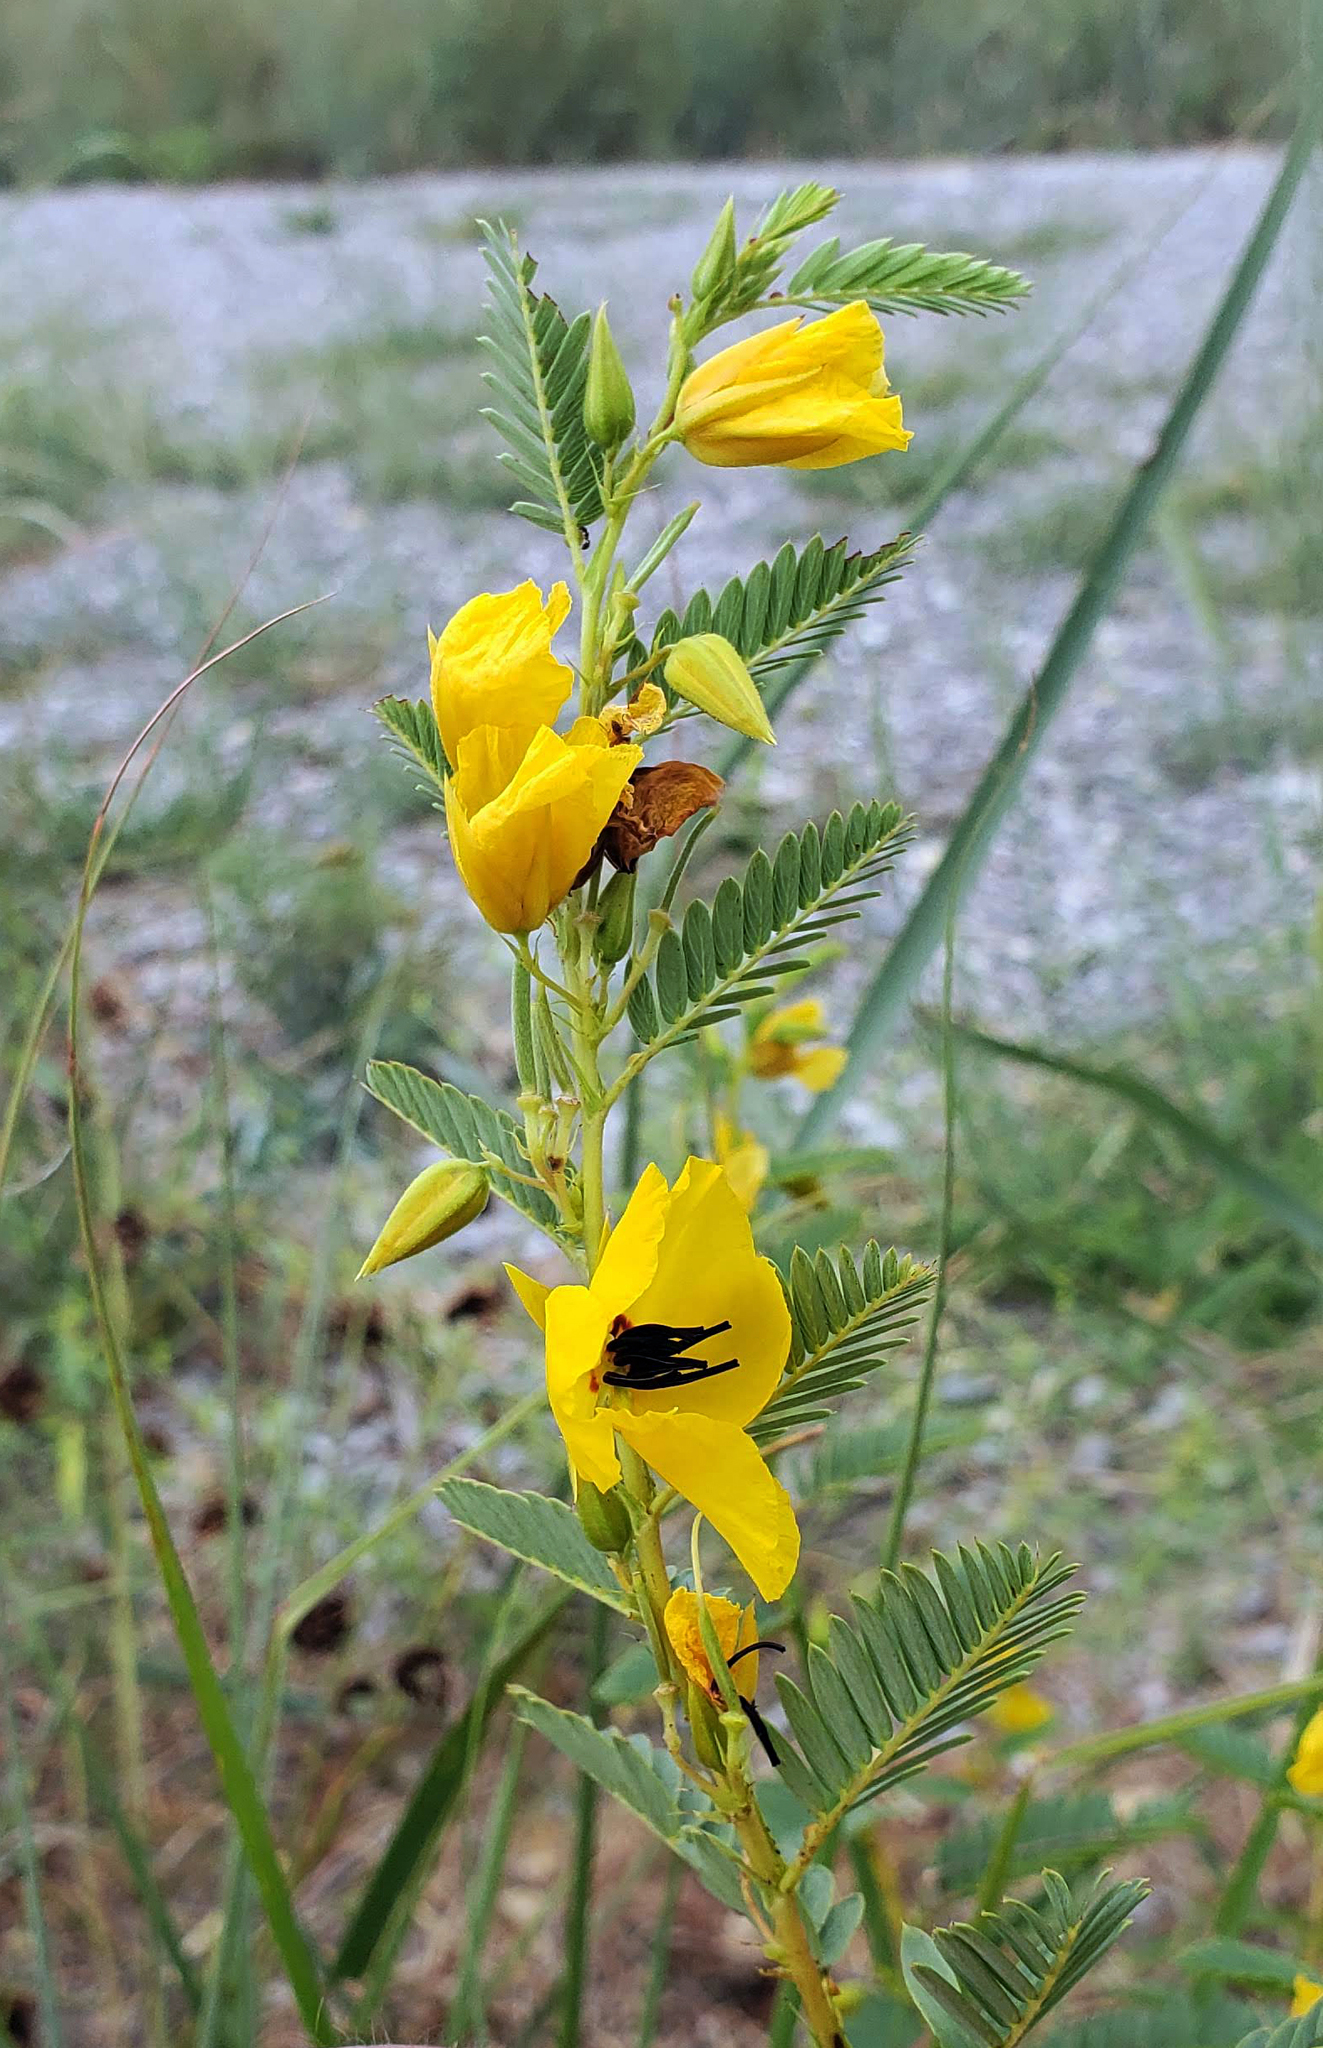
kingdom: Plantae
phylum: Tracheophyta
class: Magnoliopsida
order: Fabales
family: Fabaceae
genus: Chamaecrista
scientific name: Chamaecrista fasciculata
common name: Golden cassia
